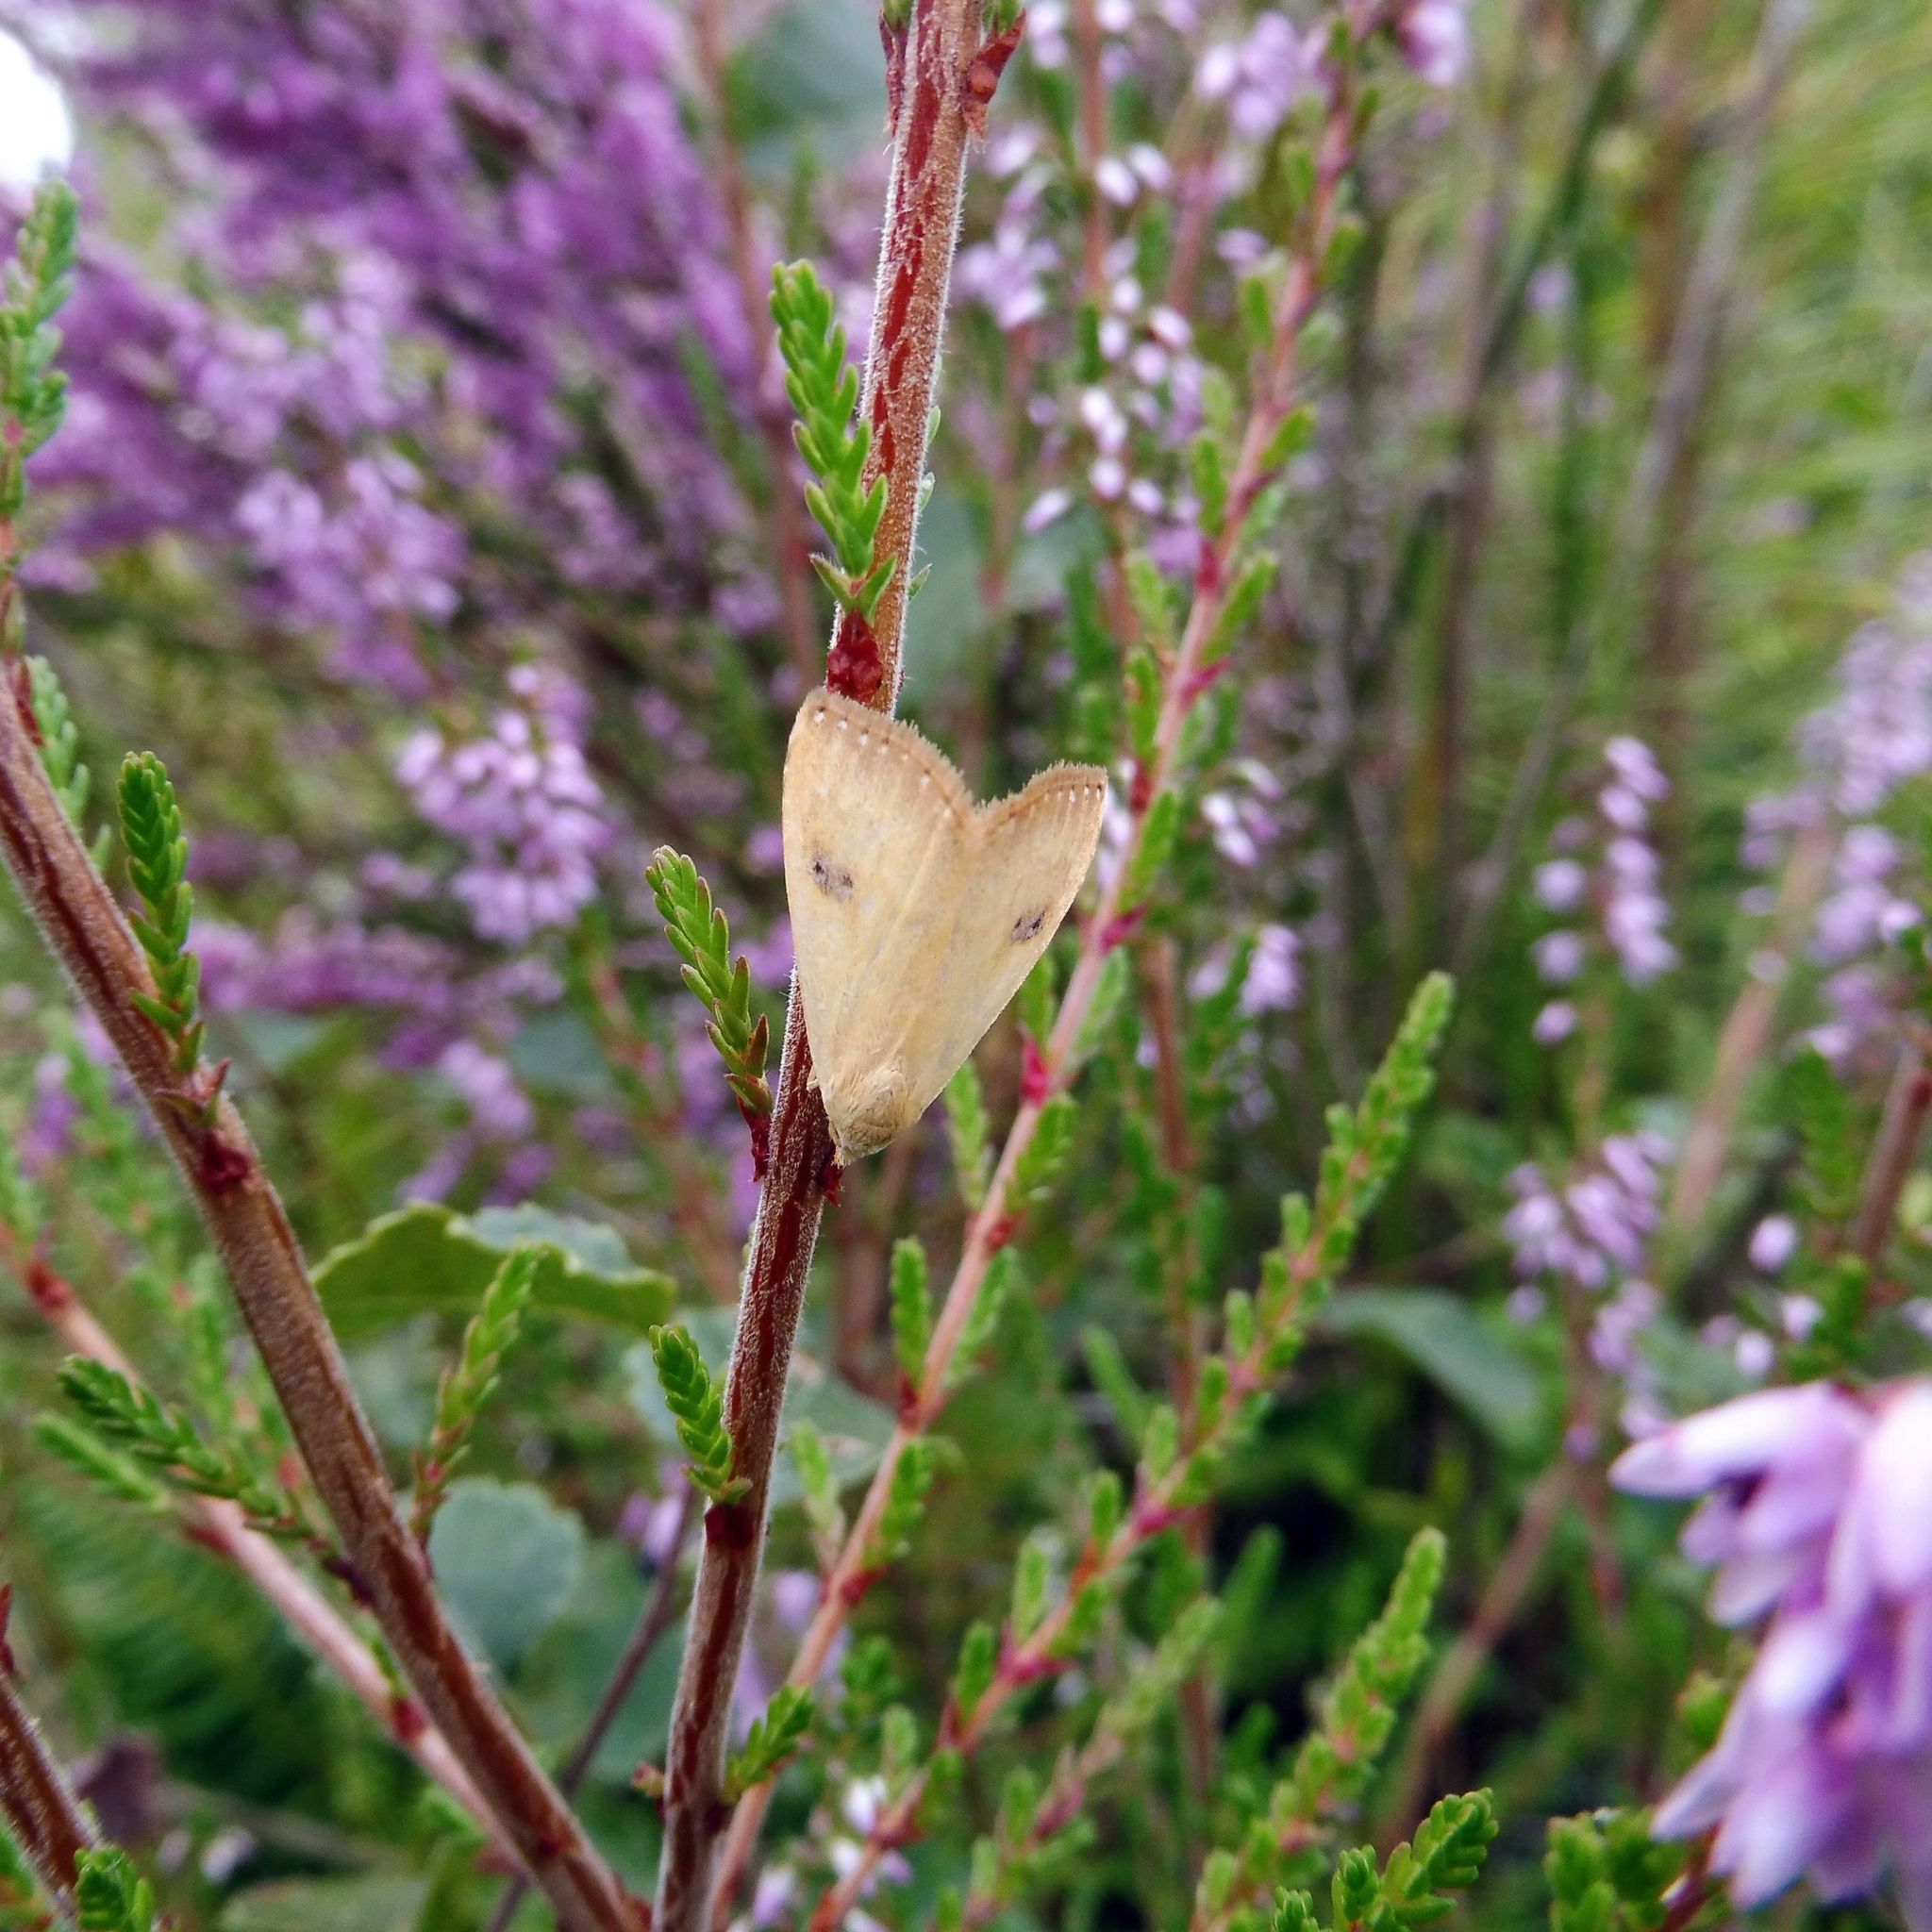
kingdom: Animalia
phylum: Arthropoda
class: Insecta
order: Lepidoptera
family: Erebidae
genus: Rivula
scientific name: Rivula sericealis
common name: Straw dot
